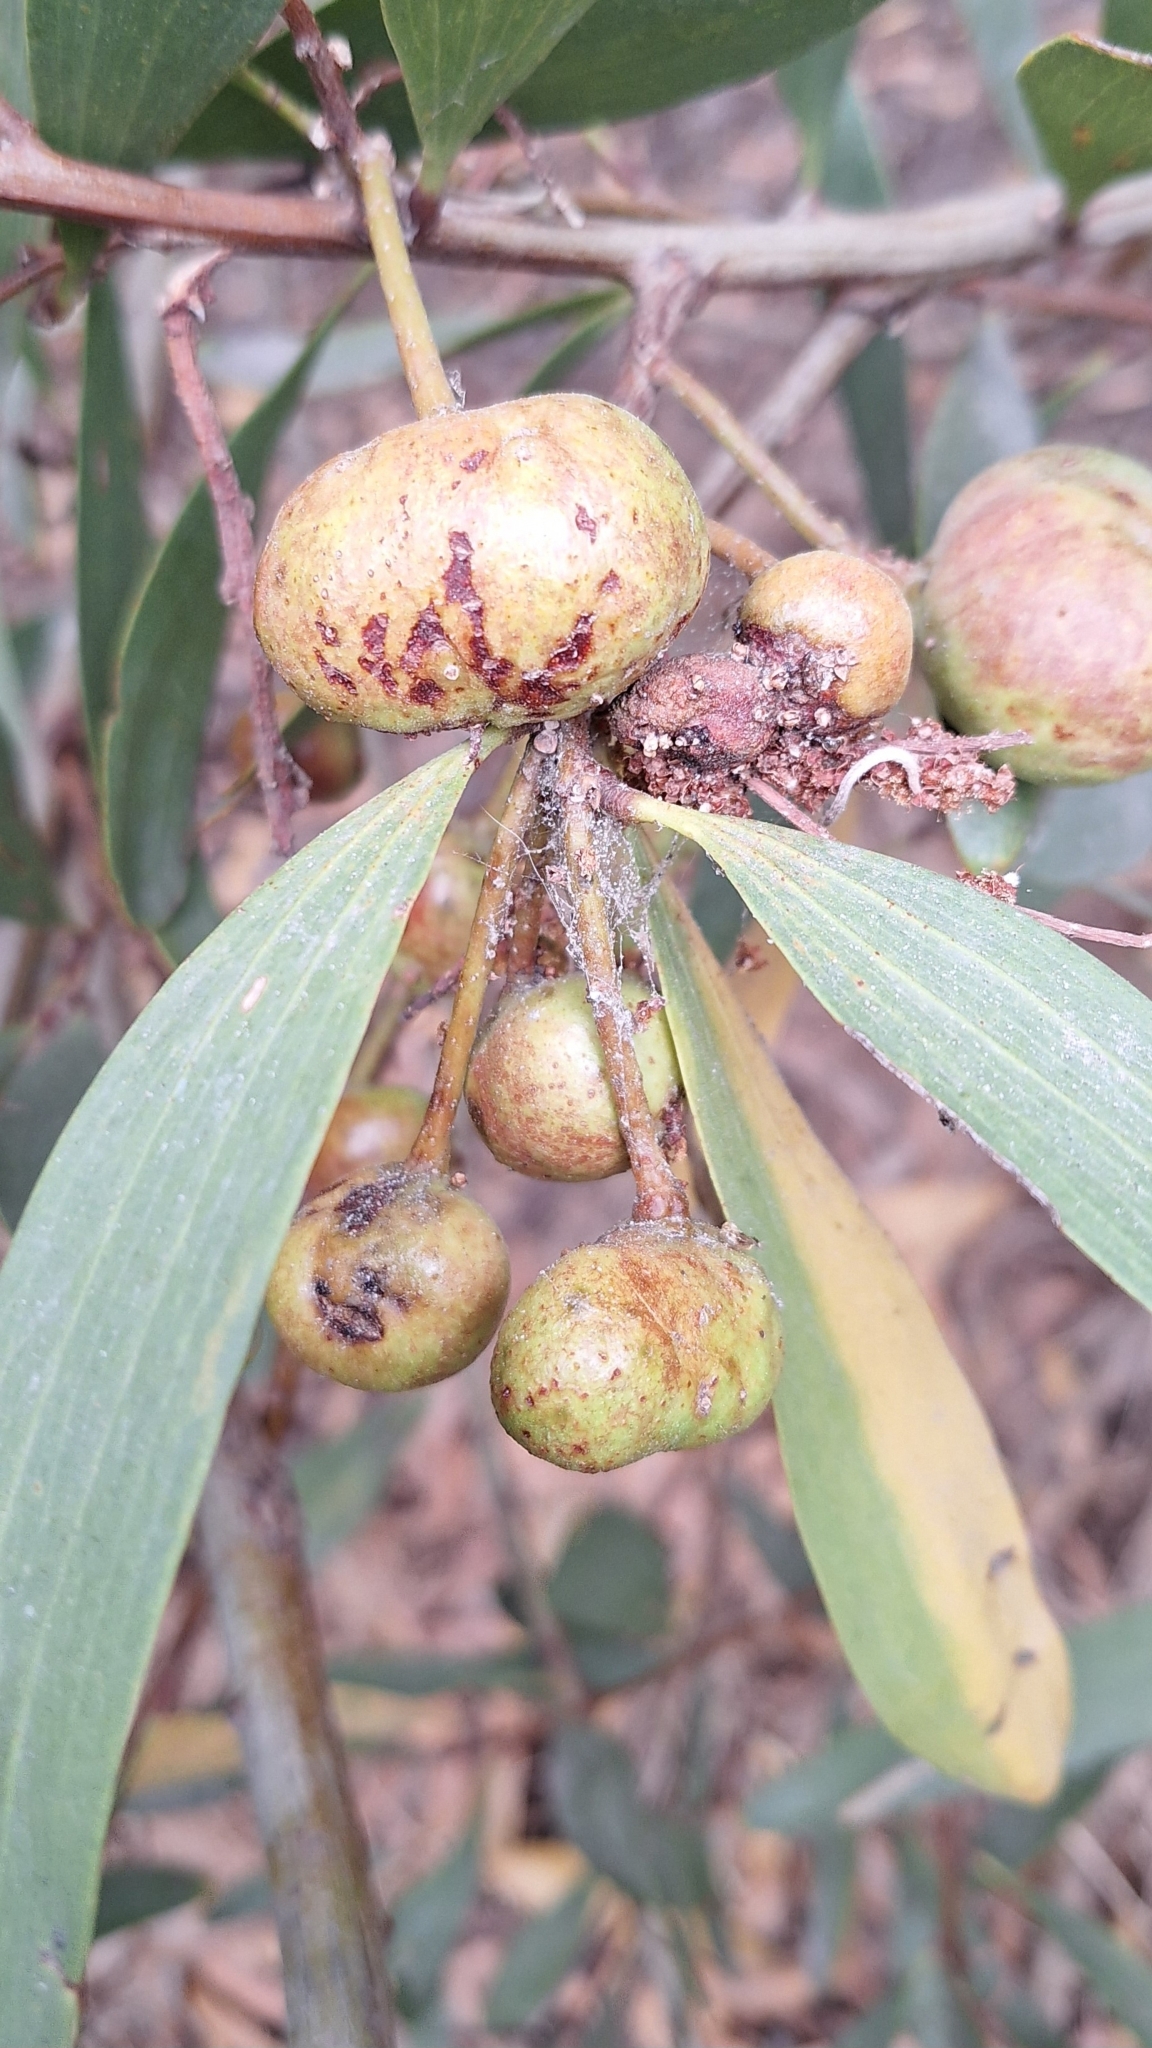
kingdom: Animalia
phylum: Arthropoda
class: Insecta
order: Hymenoptera
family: Pteromalidae
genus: Trichilogaster
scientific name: Trichilogaster acaciaelongifoliae
